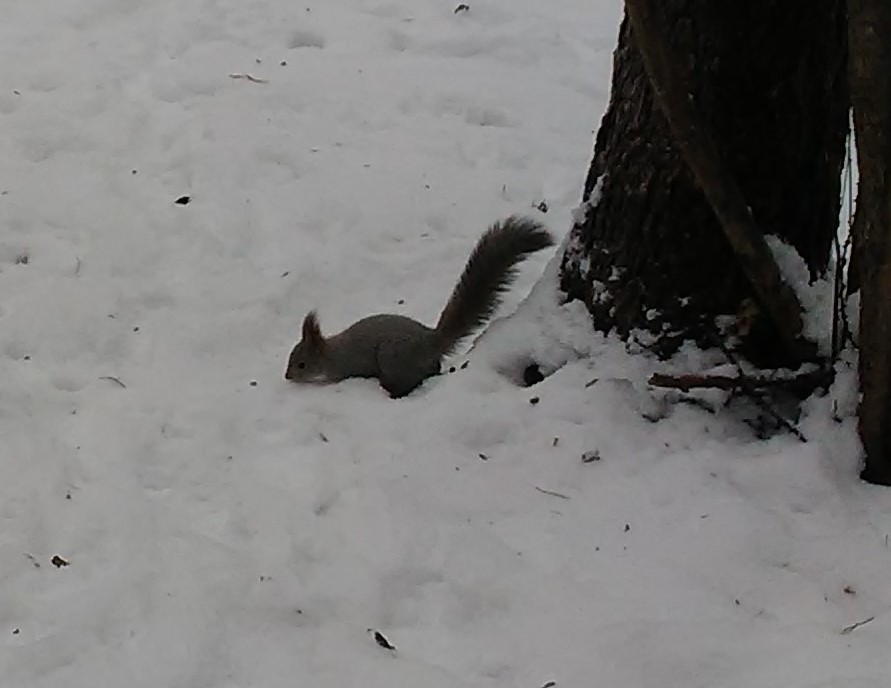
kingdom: Animalia
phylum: Chordata
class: Mammalia
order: Rodentia
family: Sciuridae
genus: Sciurus
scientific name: Sciurus vulgaris
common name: Eurasian red squirrel
